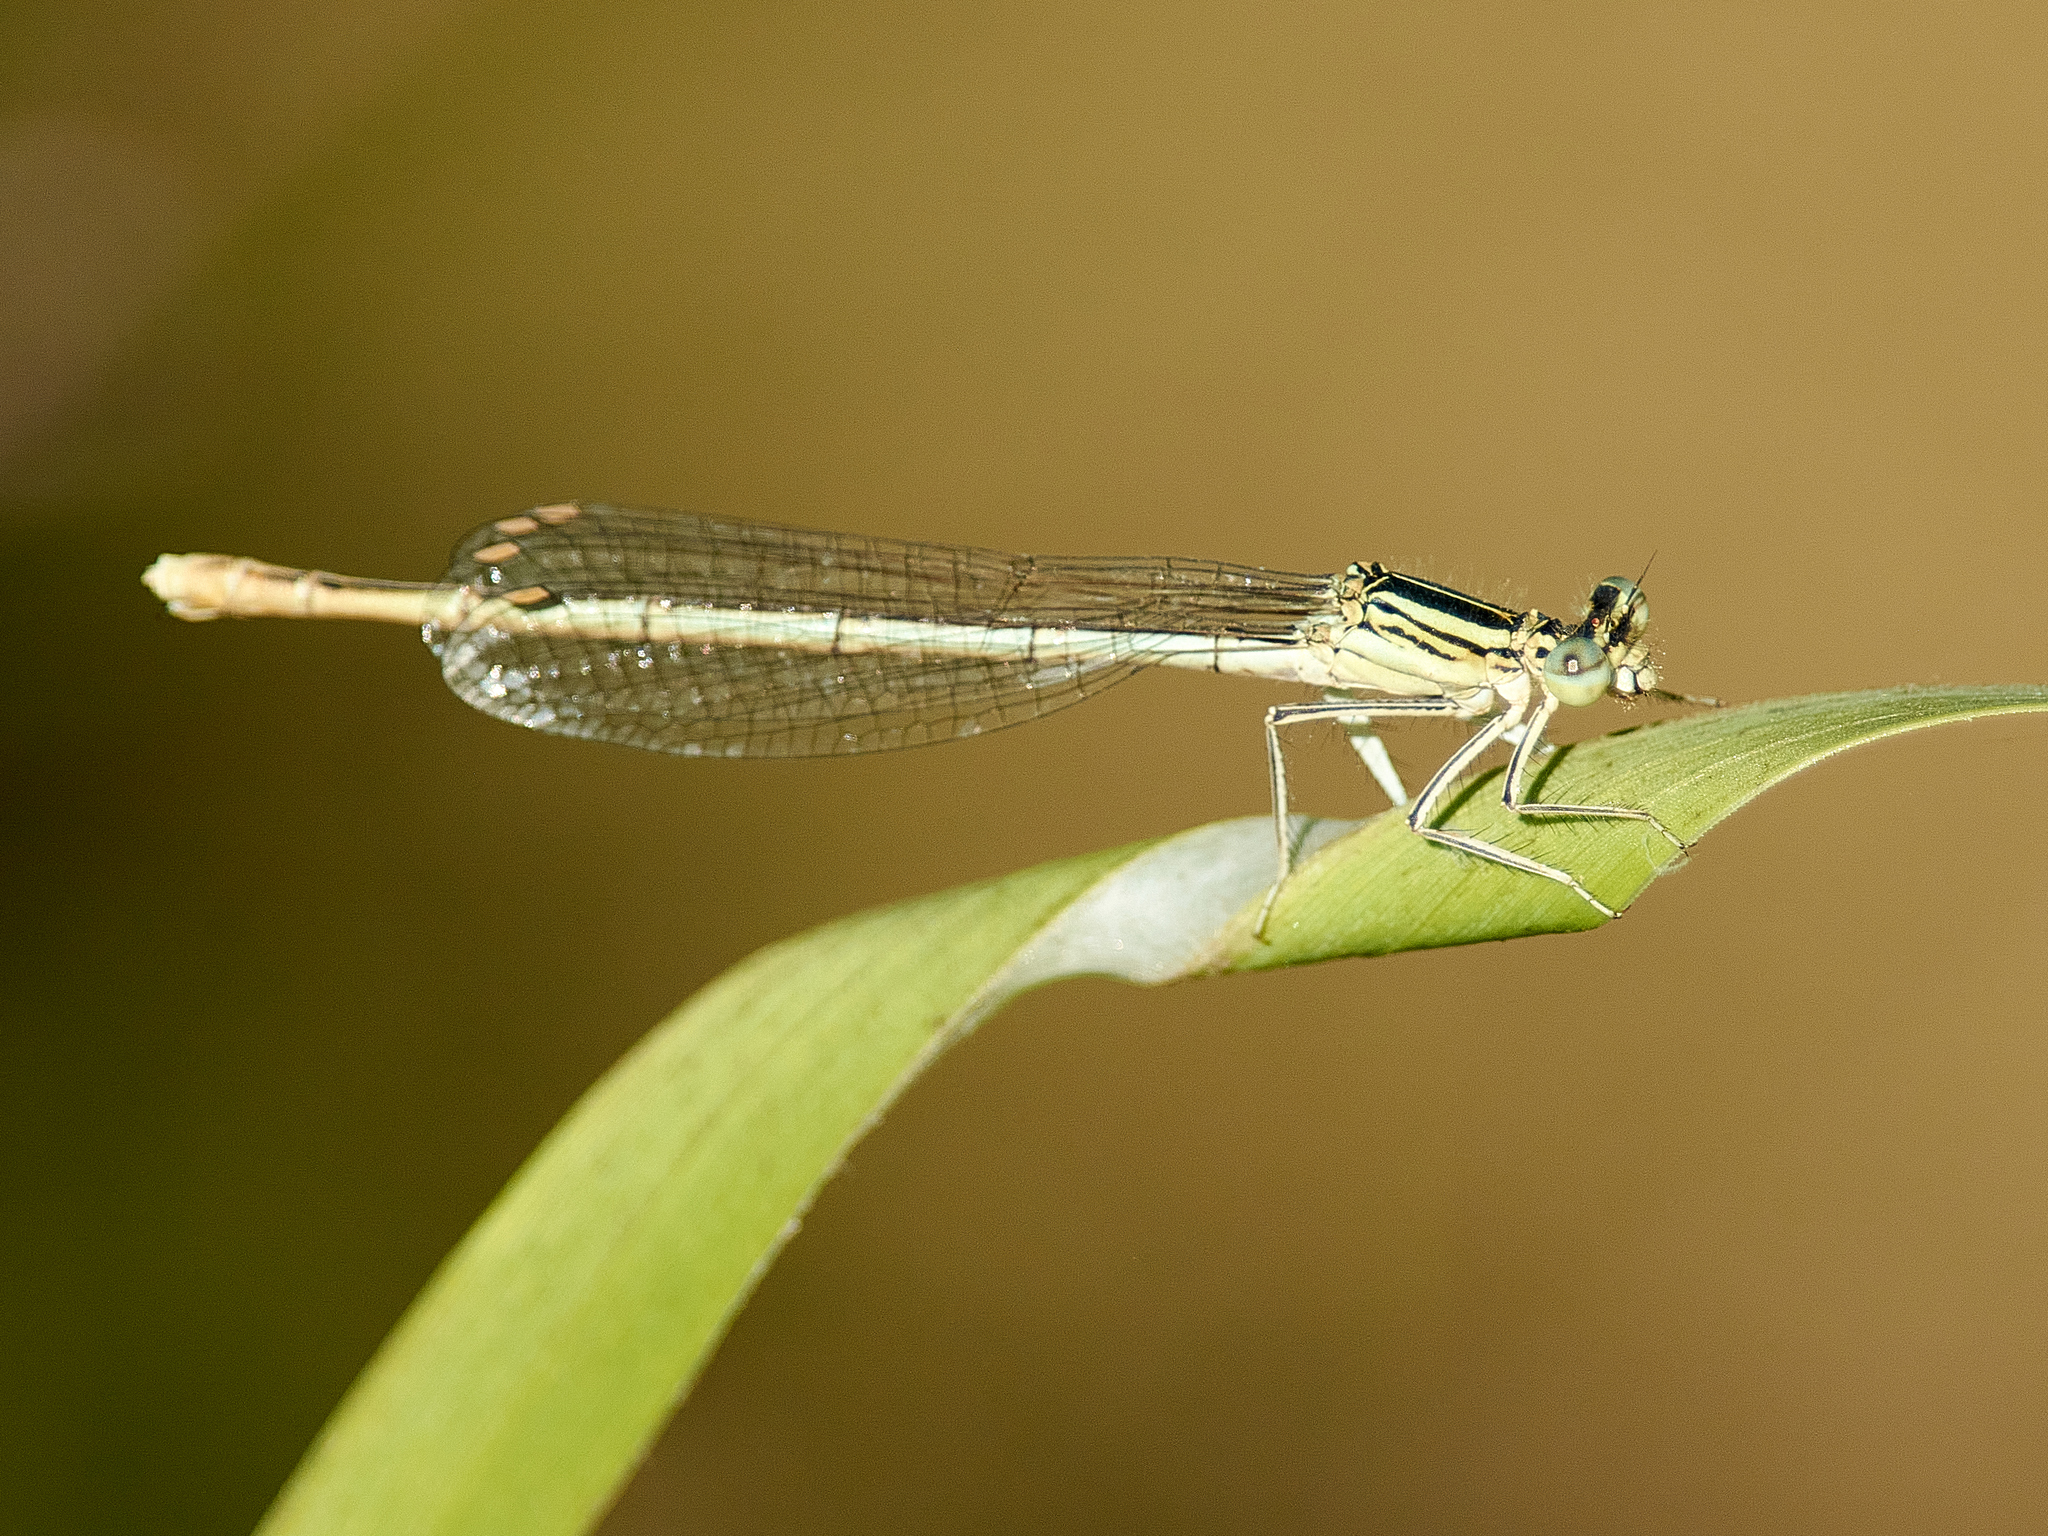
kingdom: Animalia
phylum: Arthropoda
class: Insecta
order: Odonata
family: Platycnemididae
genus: Platycnemis
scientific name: Platycnemis pennipes
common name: White-legged damselfly
